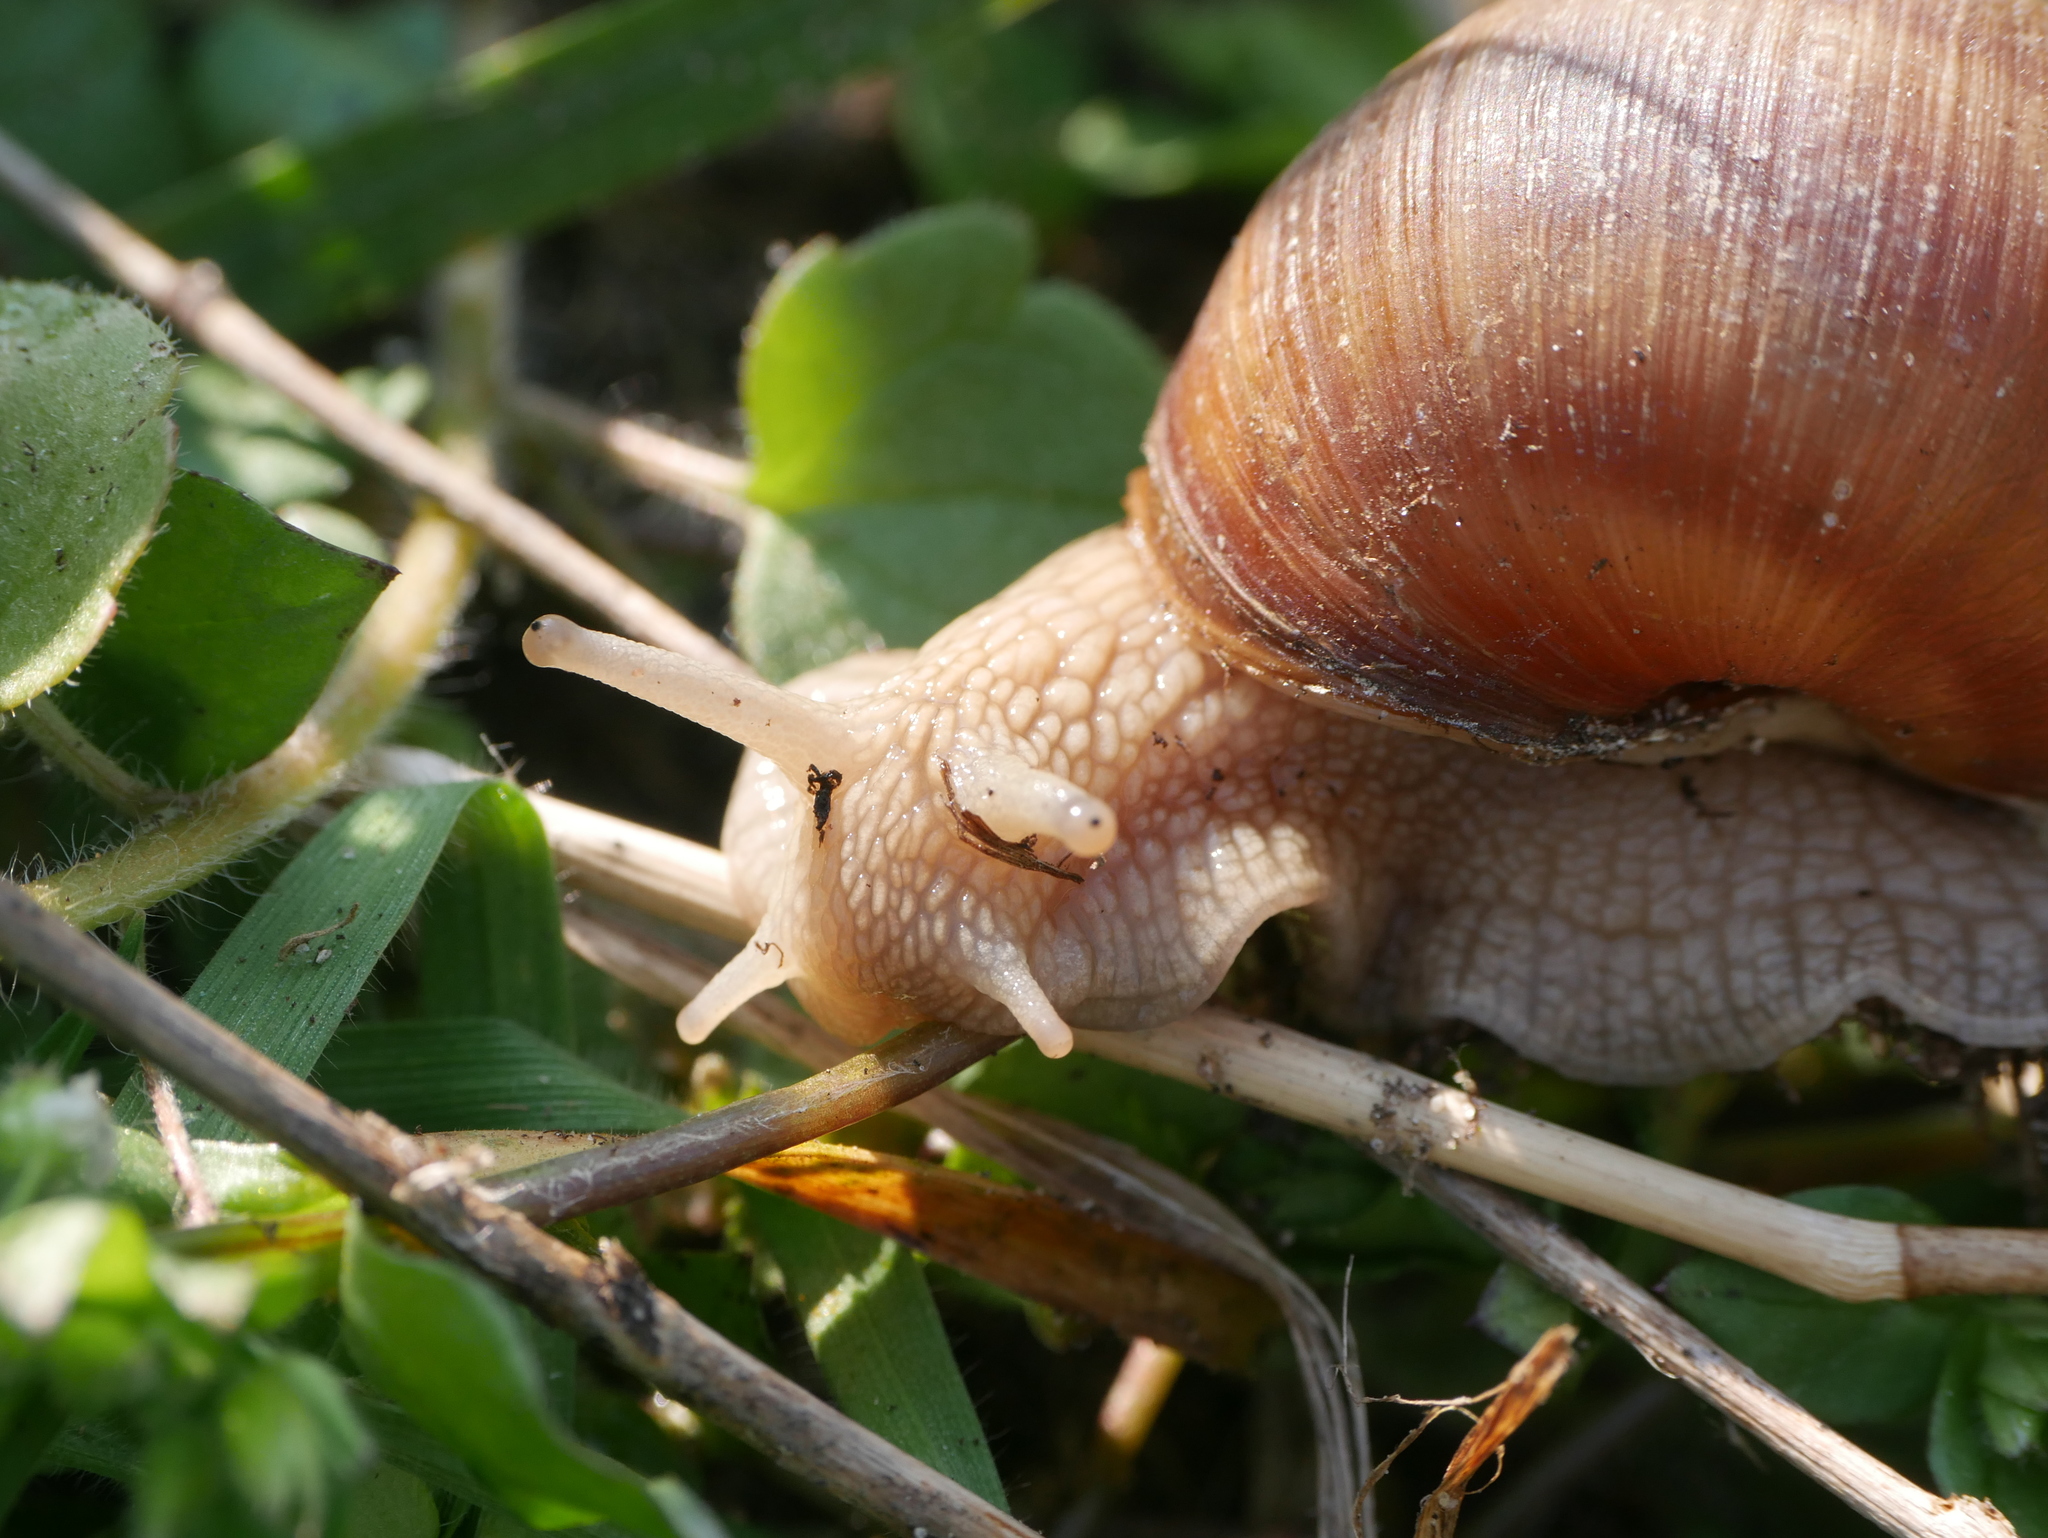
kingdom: Animalia
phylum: Mollusca
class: Gastropoda
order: Stylommatophora
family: Helicidae
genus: Helix
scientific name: Helix pomatia
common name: Roman snail
